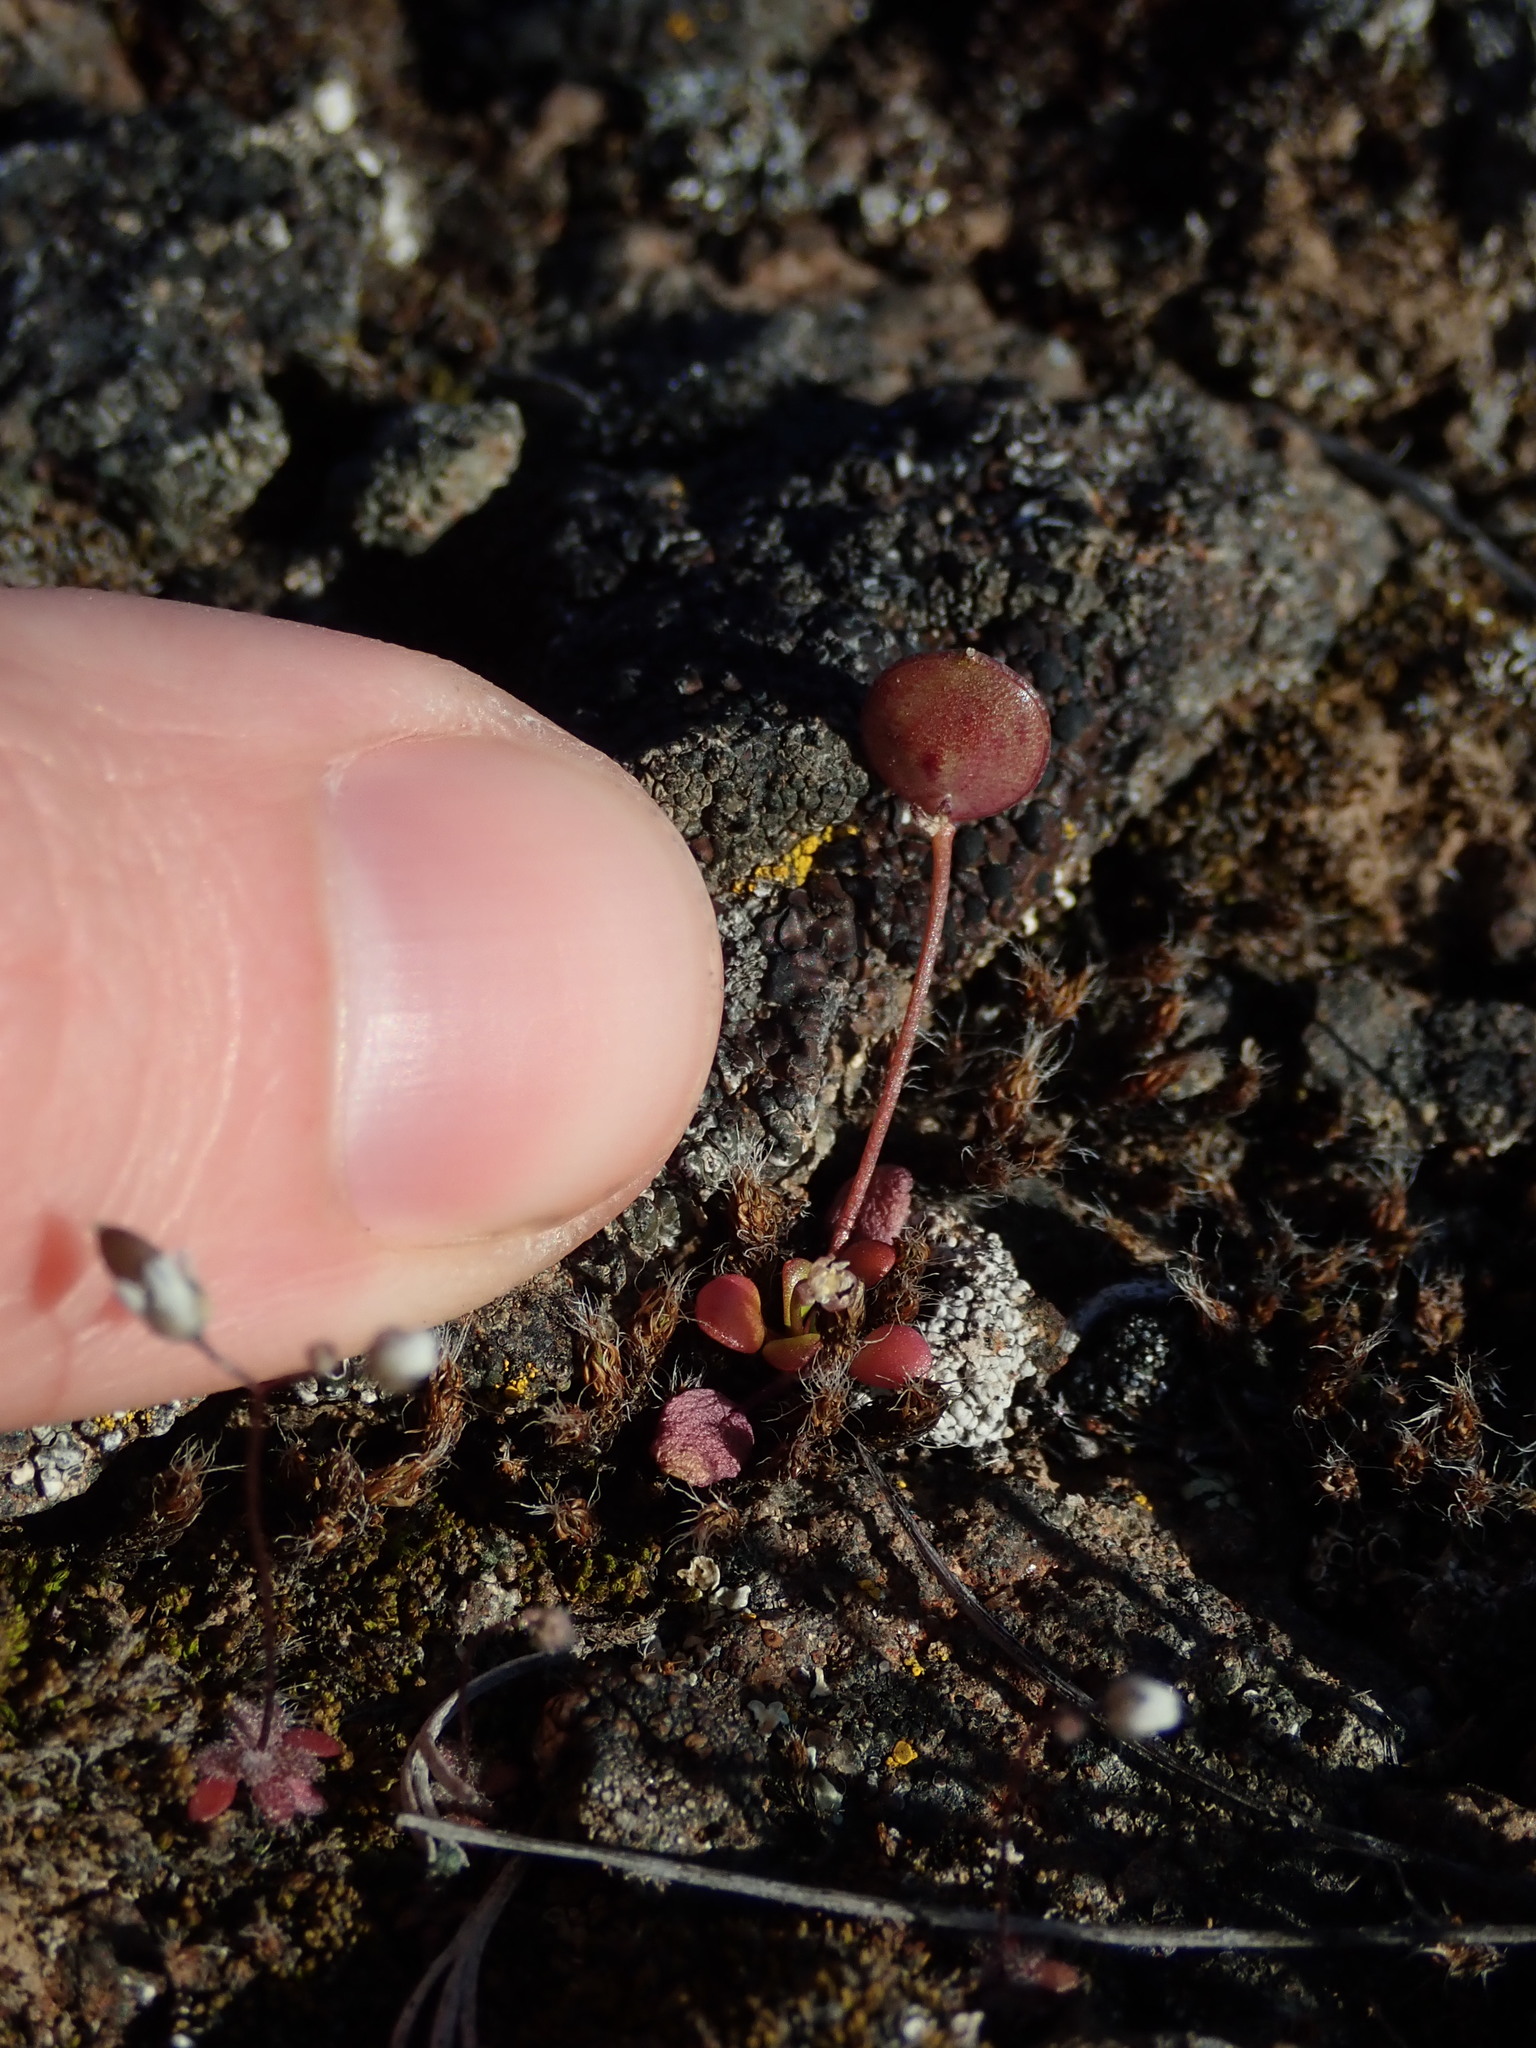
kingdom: Plantae
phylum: Tracheophyta
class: Magnoliopsida
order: Brassicales
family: Brassicaceae
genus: Idahoa
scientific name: Idahoa scapigera
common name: Scalepod
